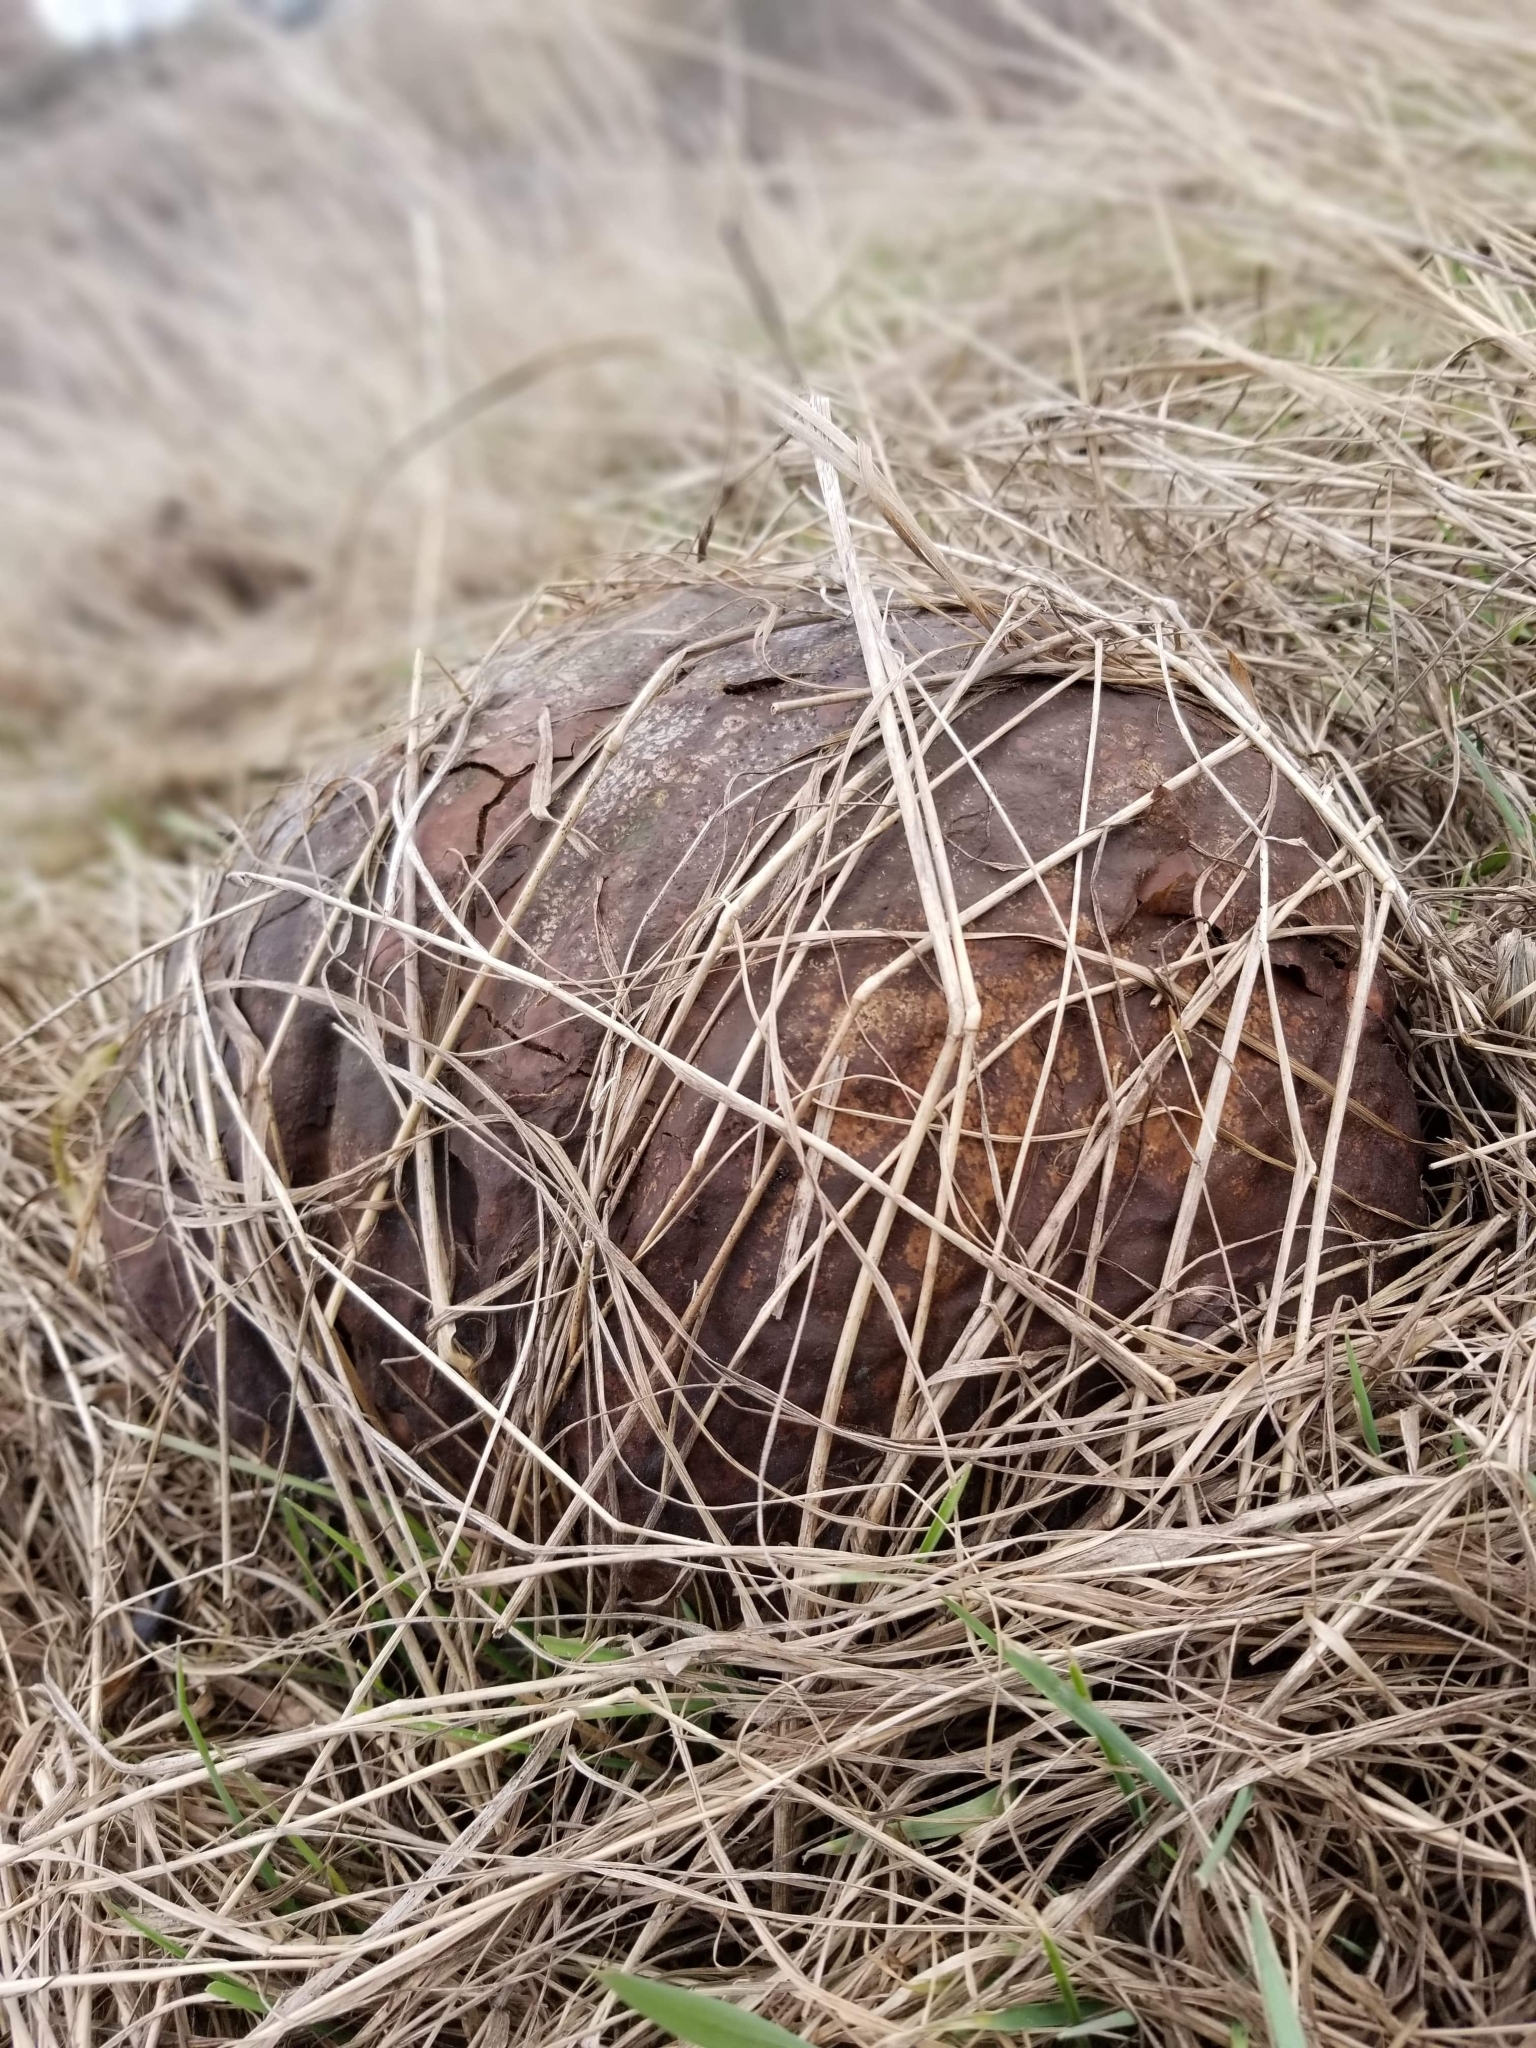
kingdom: Fungi
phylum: Basidiomycota
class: Agaricomycetes
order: Agaricales
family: Lycoperdaceae
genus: Calvatia
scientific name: Calvatia gigantea
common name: Giant puffball
